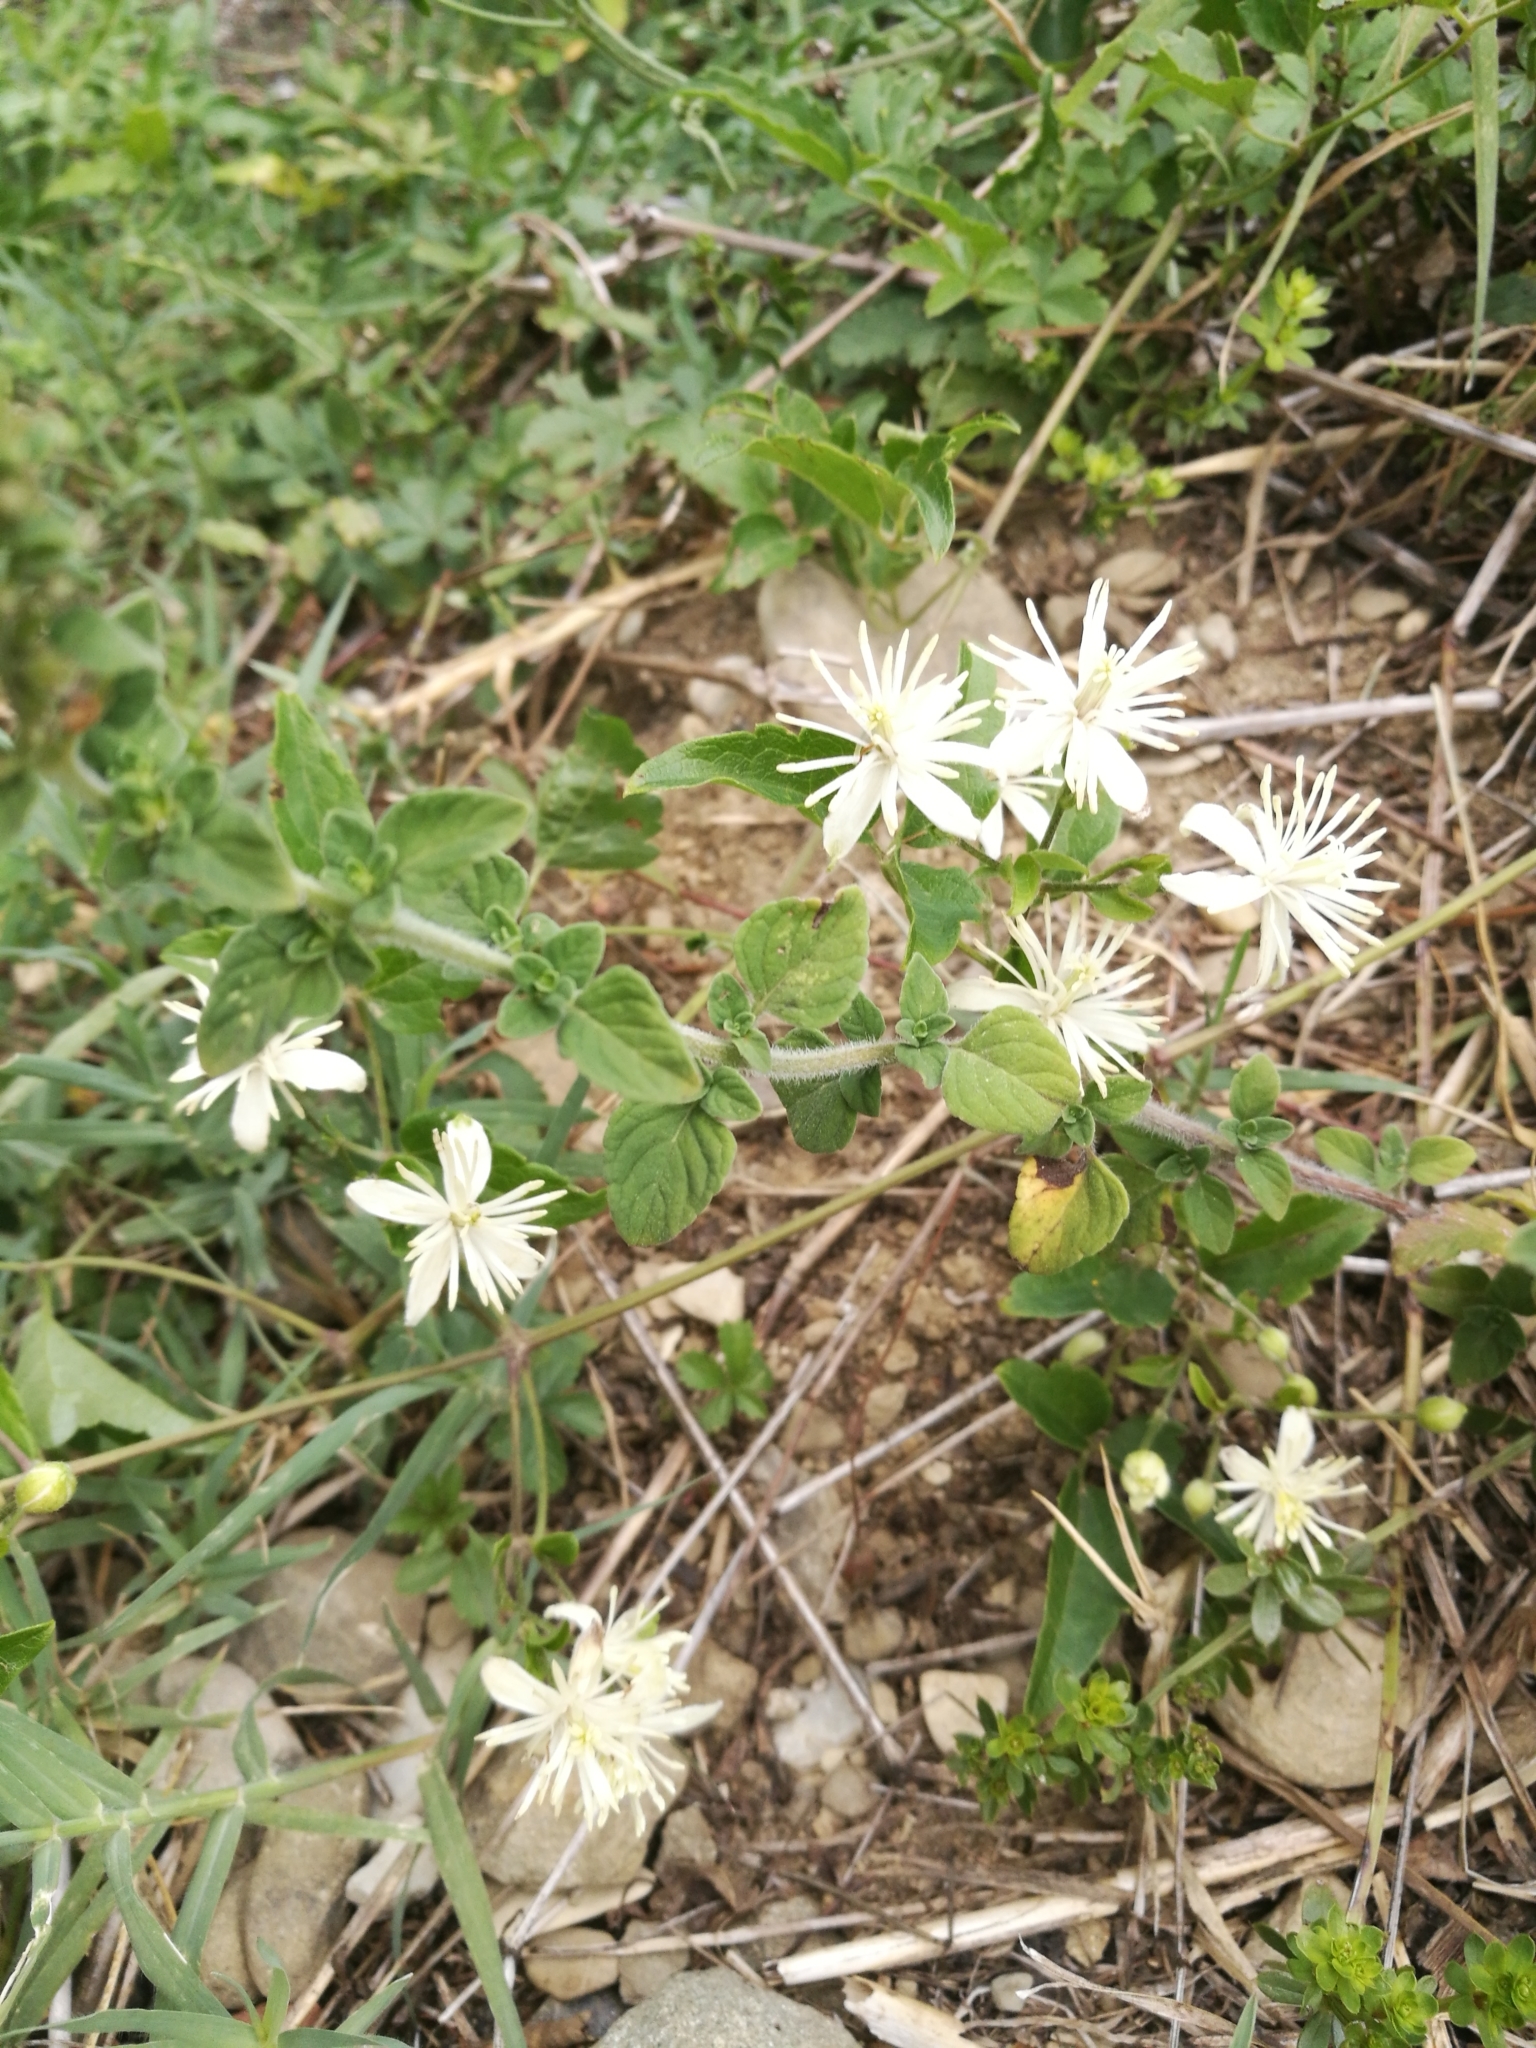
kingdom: Plantae
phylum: Tracheophyta
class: Magnoliopsida
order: Ranunculales
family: Ranunculaceae
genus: Clematis
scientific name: Clematis vitalba
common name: Evergreen clematis
